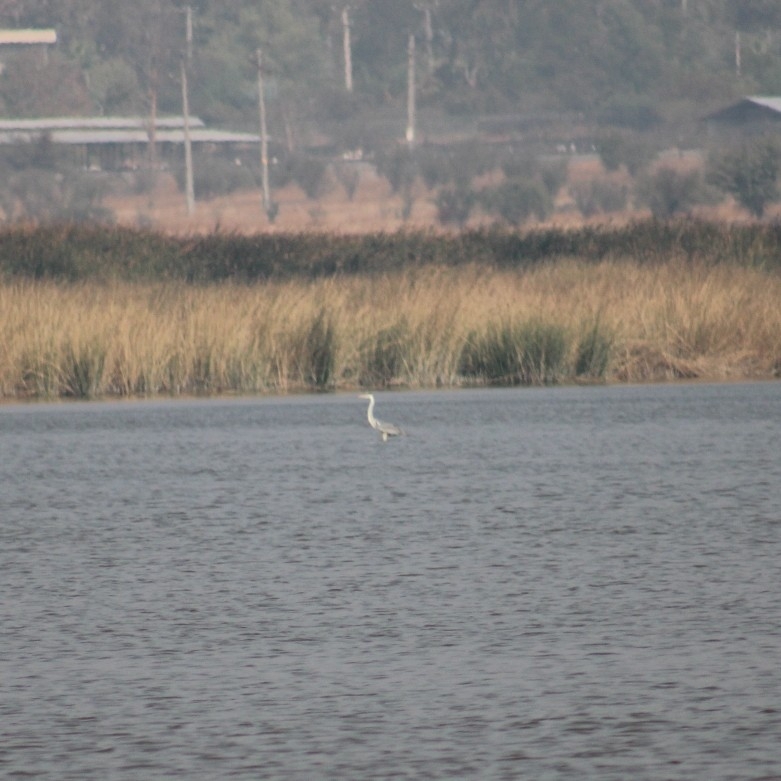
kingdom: Animalia
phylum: Chordata
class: Aves
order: Pelecaniformes
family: Ardeidae
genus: Ardea
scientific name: Ardea cocoi
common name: Cocoi heron
